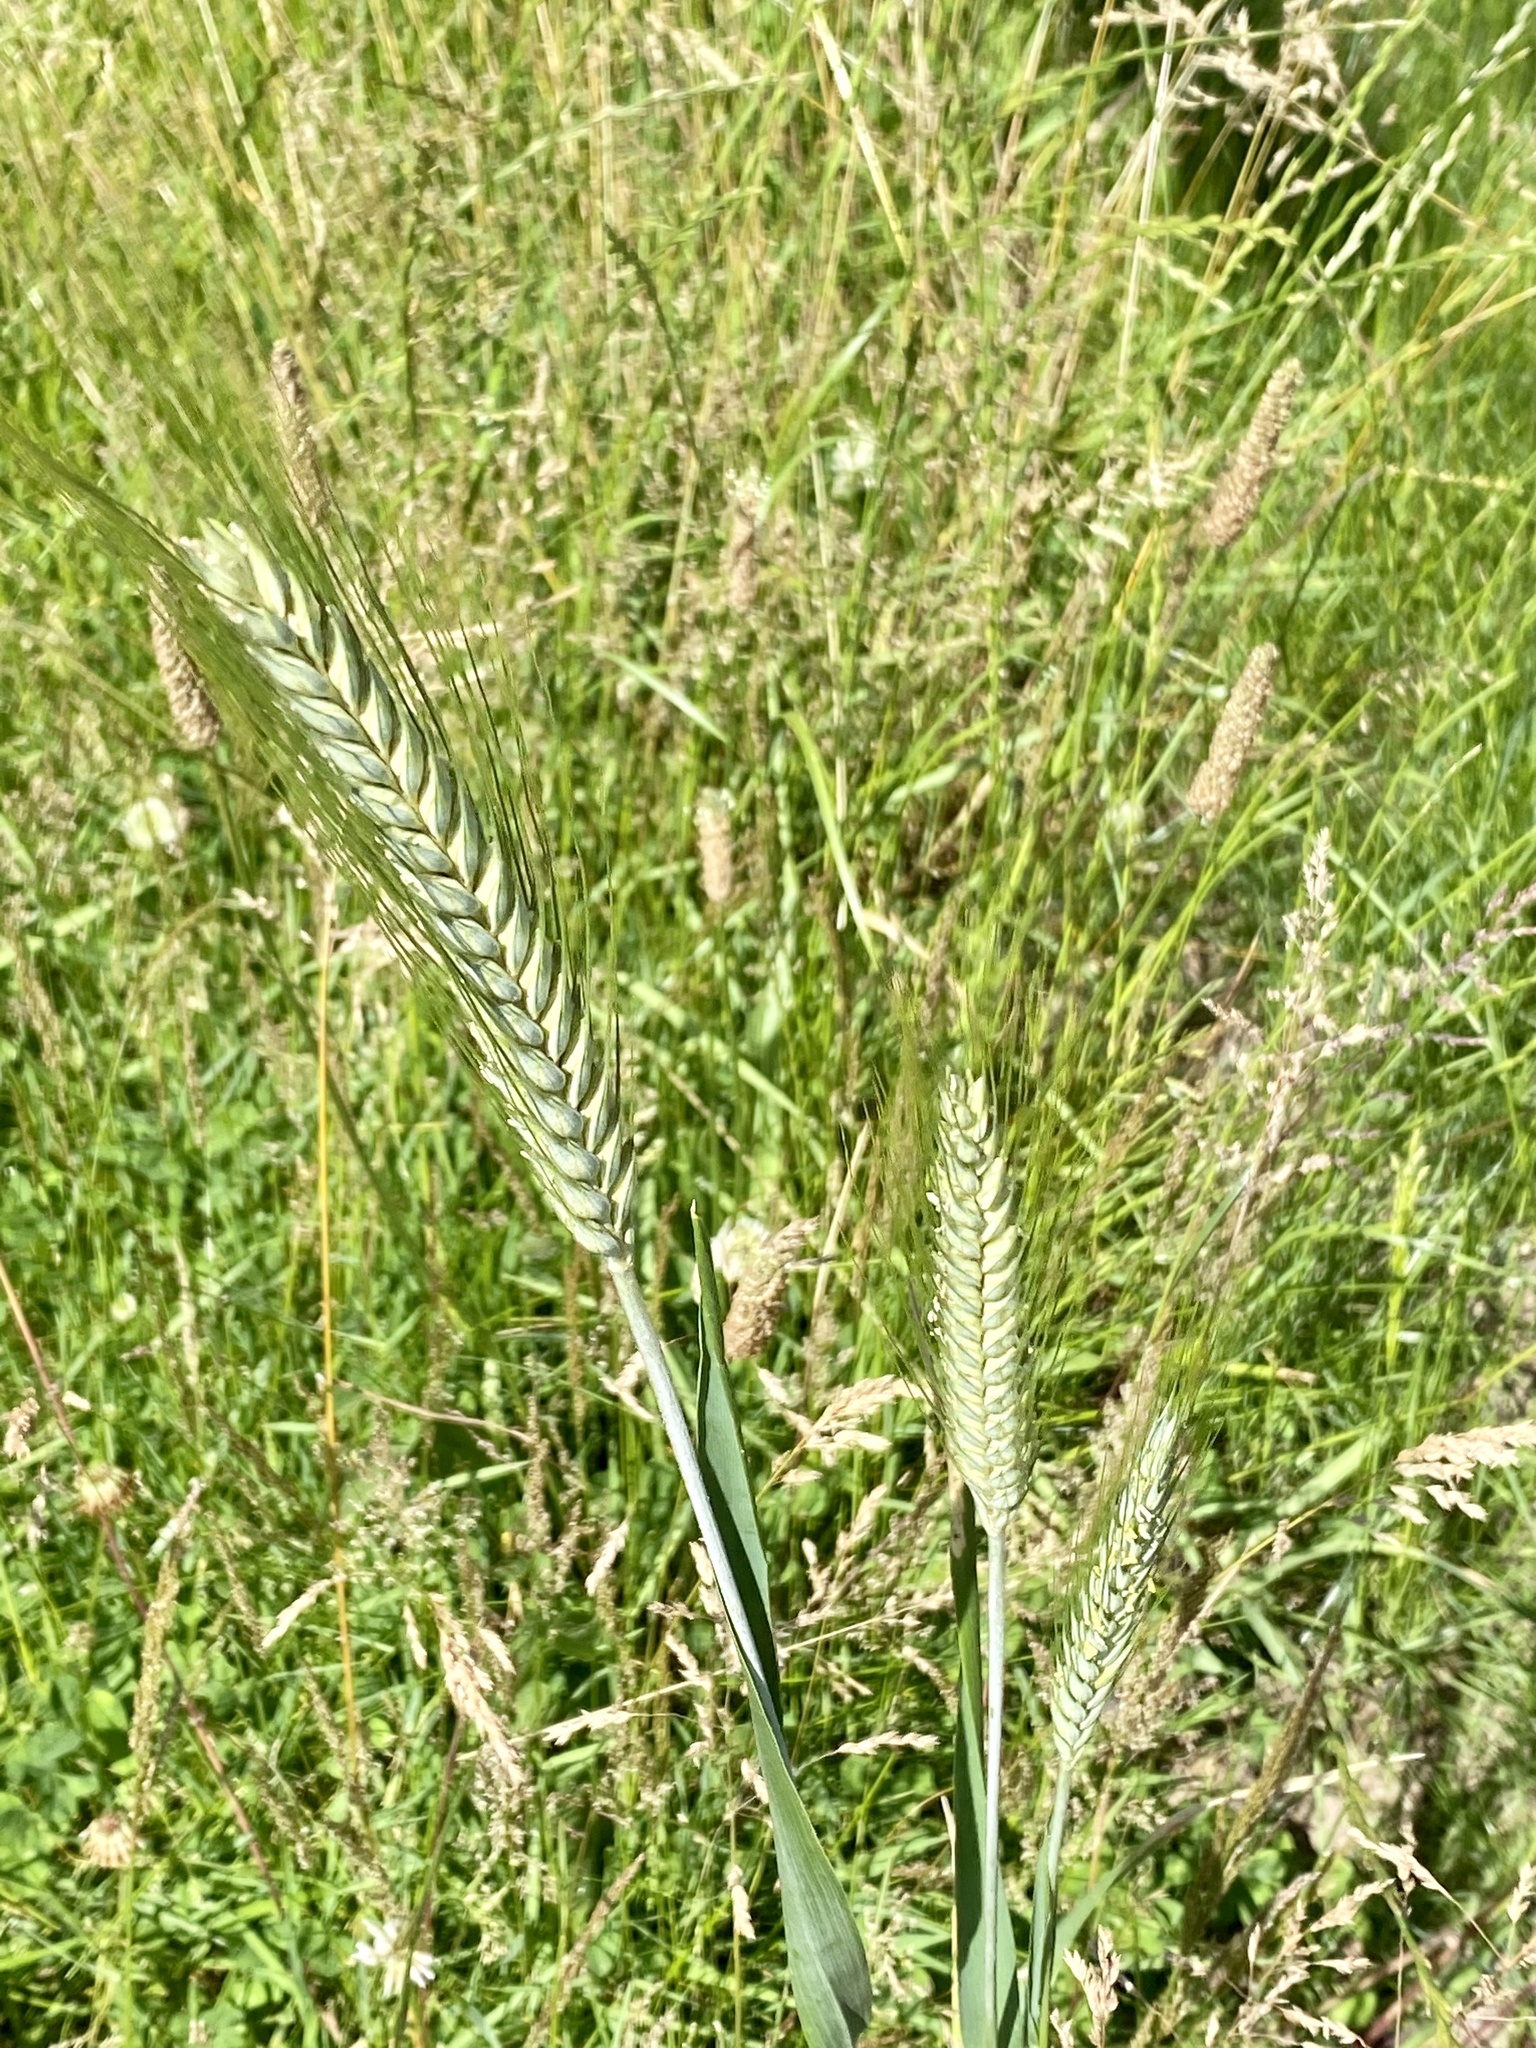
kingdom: Plantae
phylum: Tracheophyta
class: Liliopsida
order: Poales
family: Poaceae
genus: Triticum
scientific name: Triticum aestivum
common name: Common wheat
